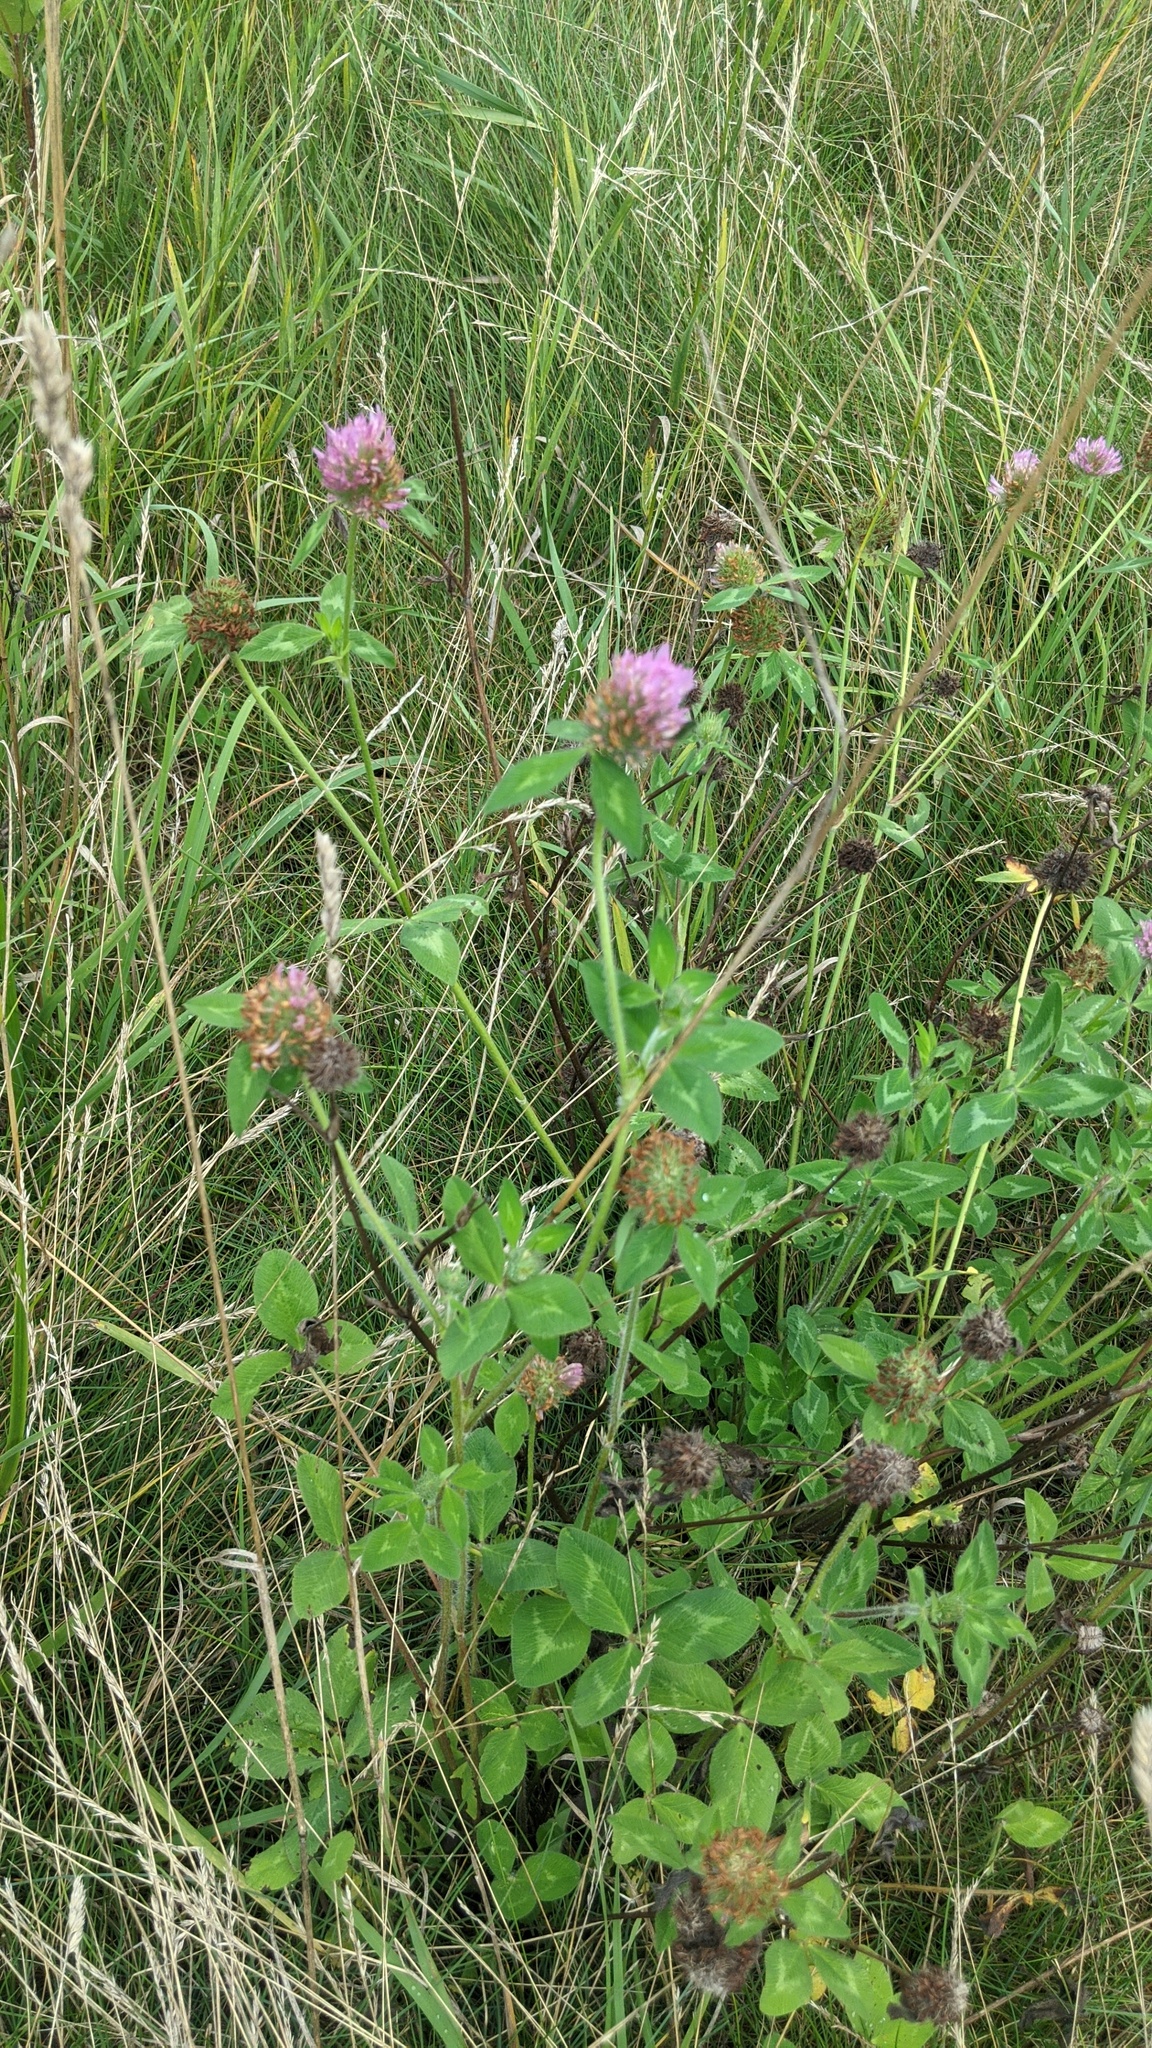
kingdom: Plantae
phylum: Tracheophyta
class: Magnoliopsida
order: Fabales
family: Fabaceae
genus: Trifolium
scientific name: Trifolium pratense
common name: Red clover
